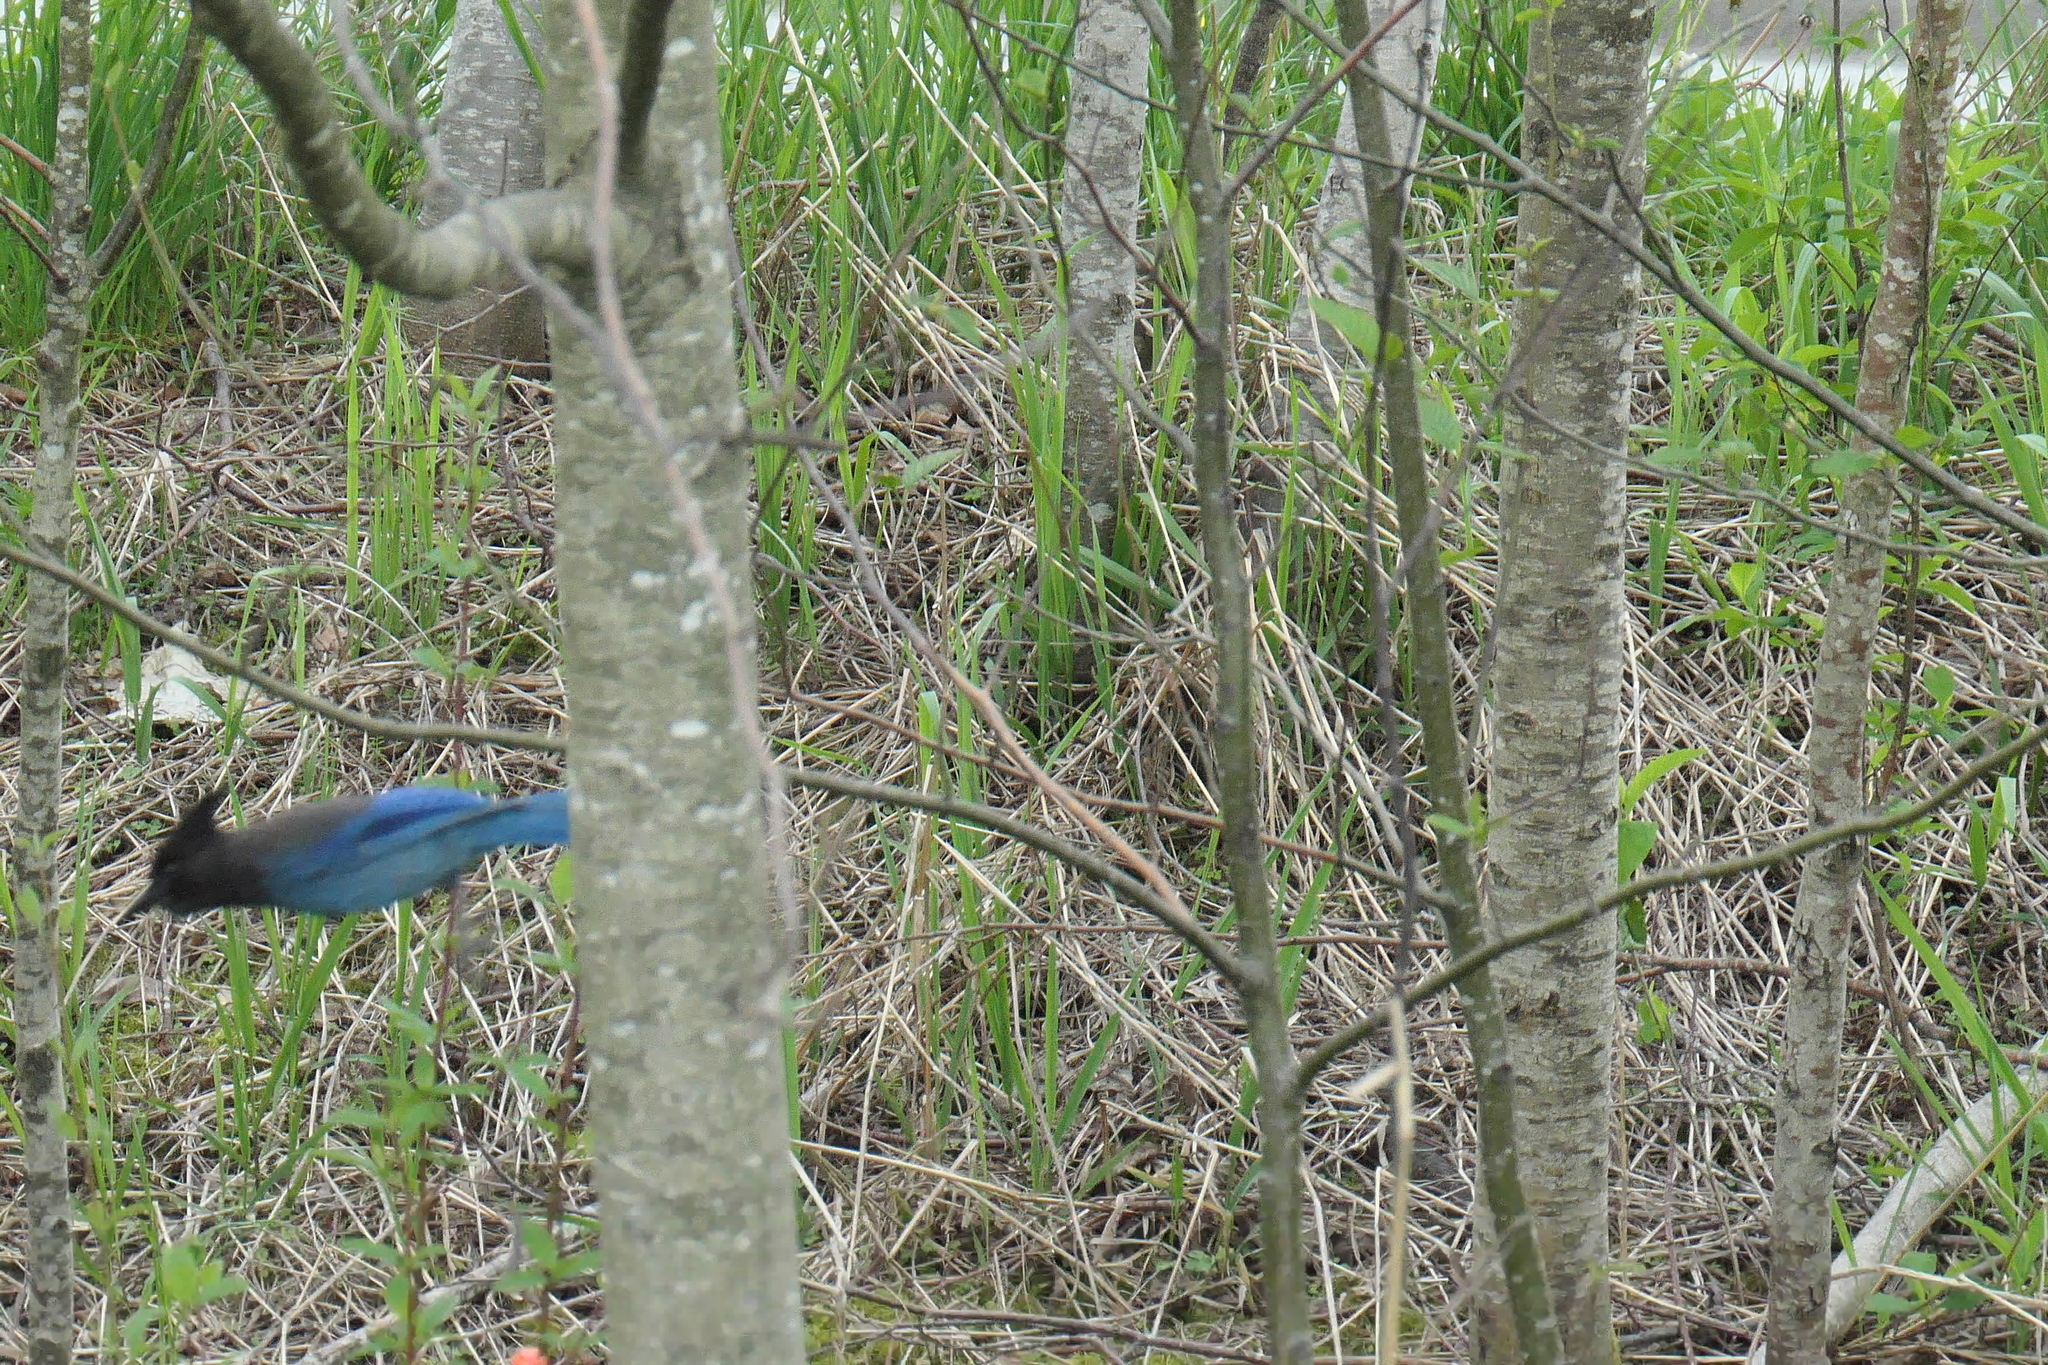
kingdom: Animalia
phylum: Chordata
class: Aves
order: Passeriformes
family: Corvidae
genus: Cyanocitta
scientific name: Cyanocitta stelleri
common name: Steller's jay
